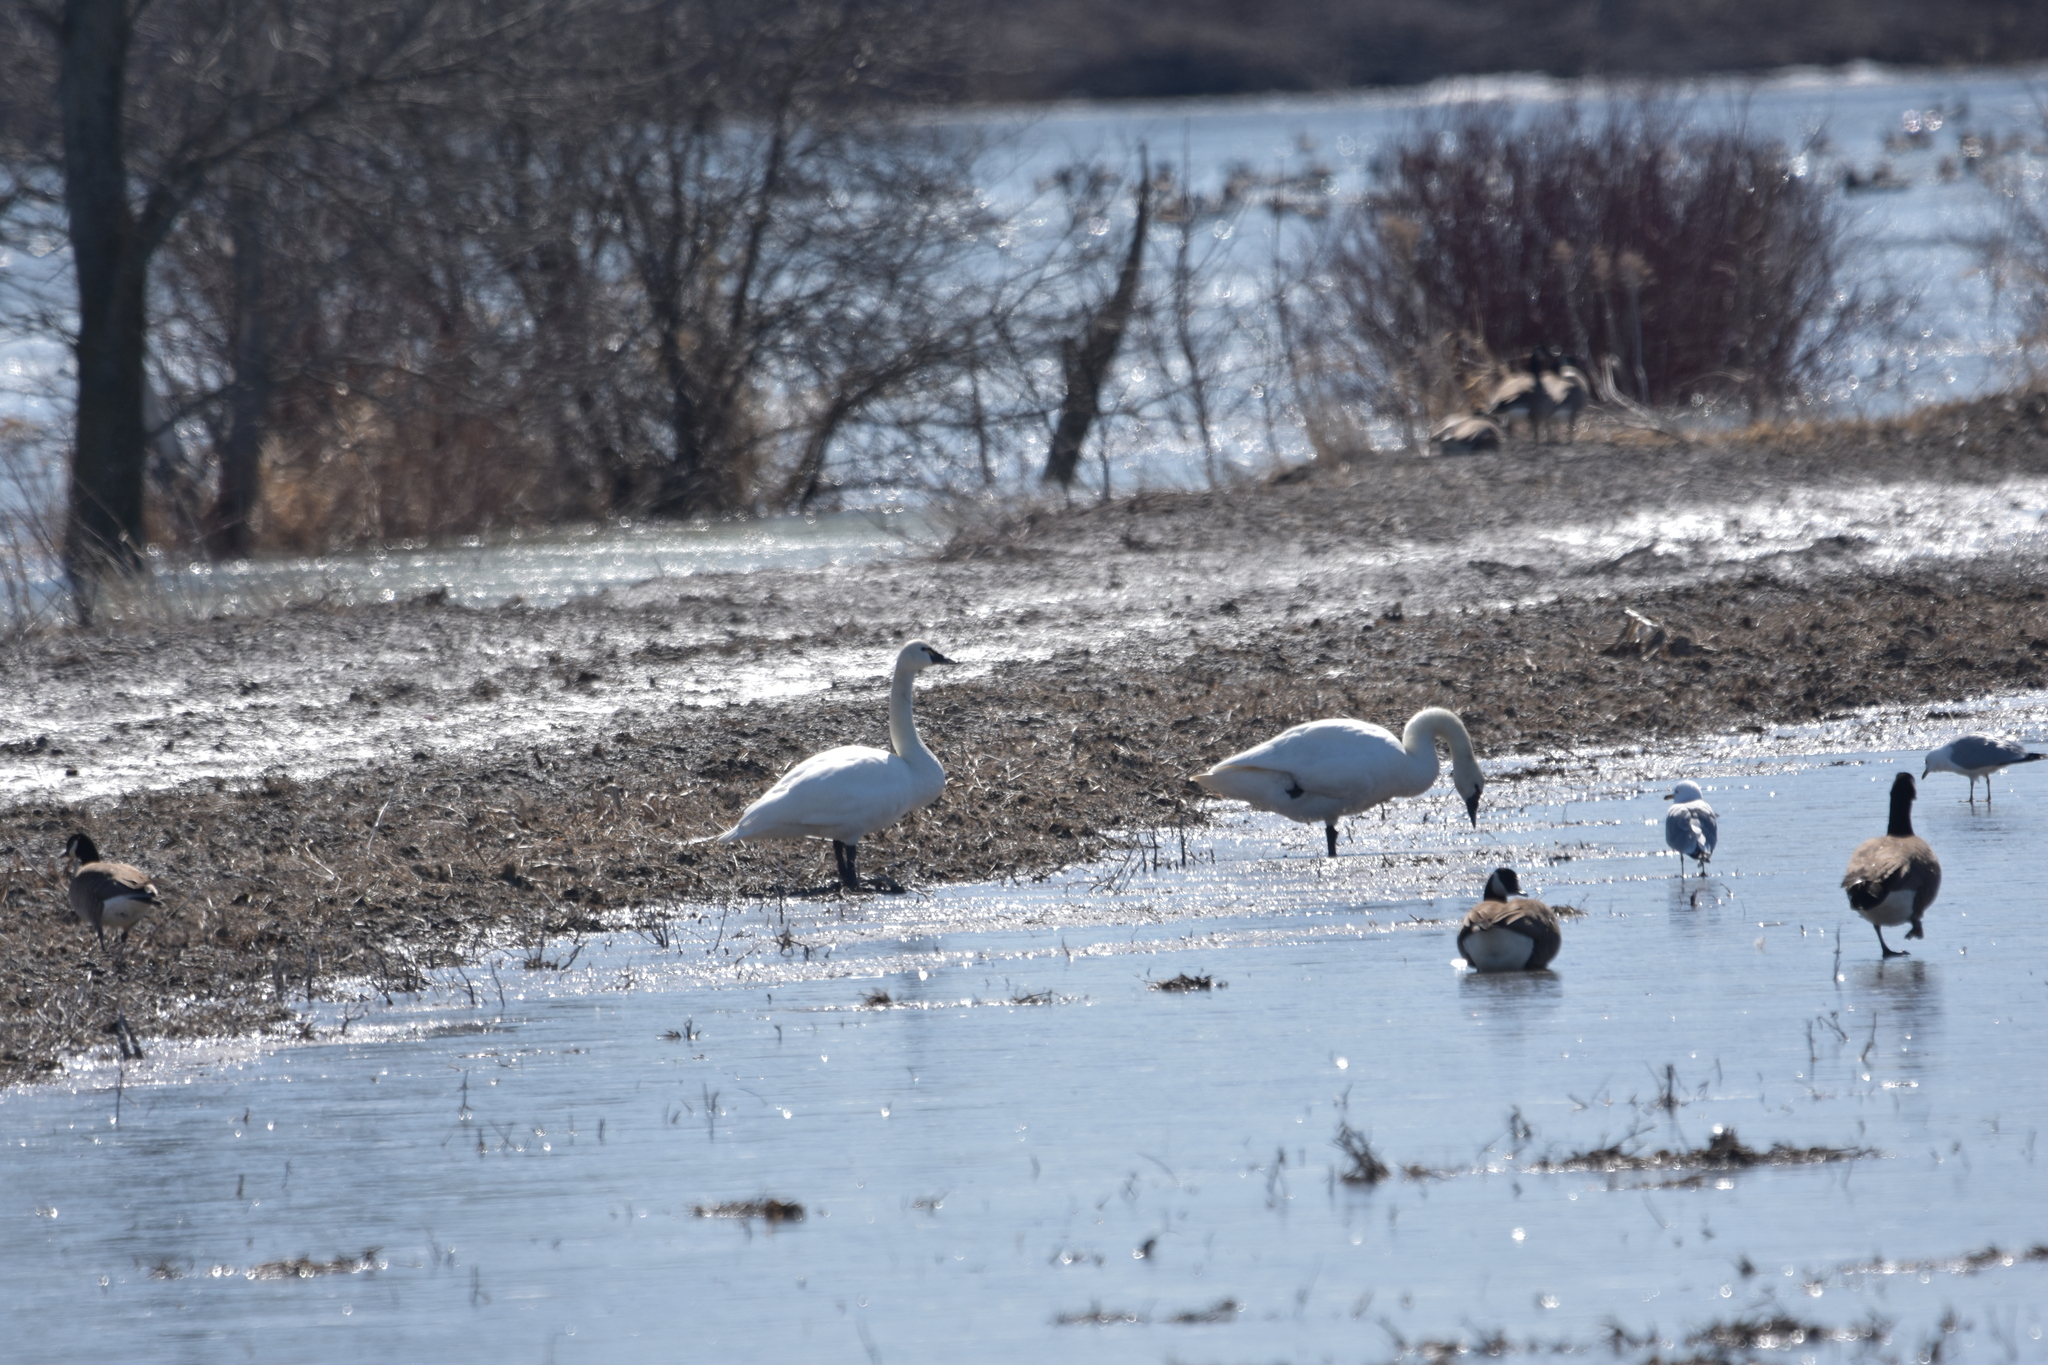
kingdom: Animalia
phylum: Chordata
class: Aves
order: Anseriformes
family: Anatidae
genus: Cygnus
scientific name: Cygnus columbianus
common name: Tundra swan
